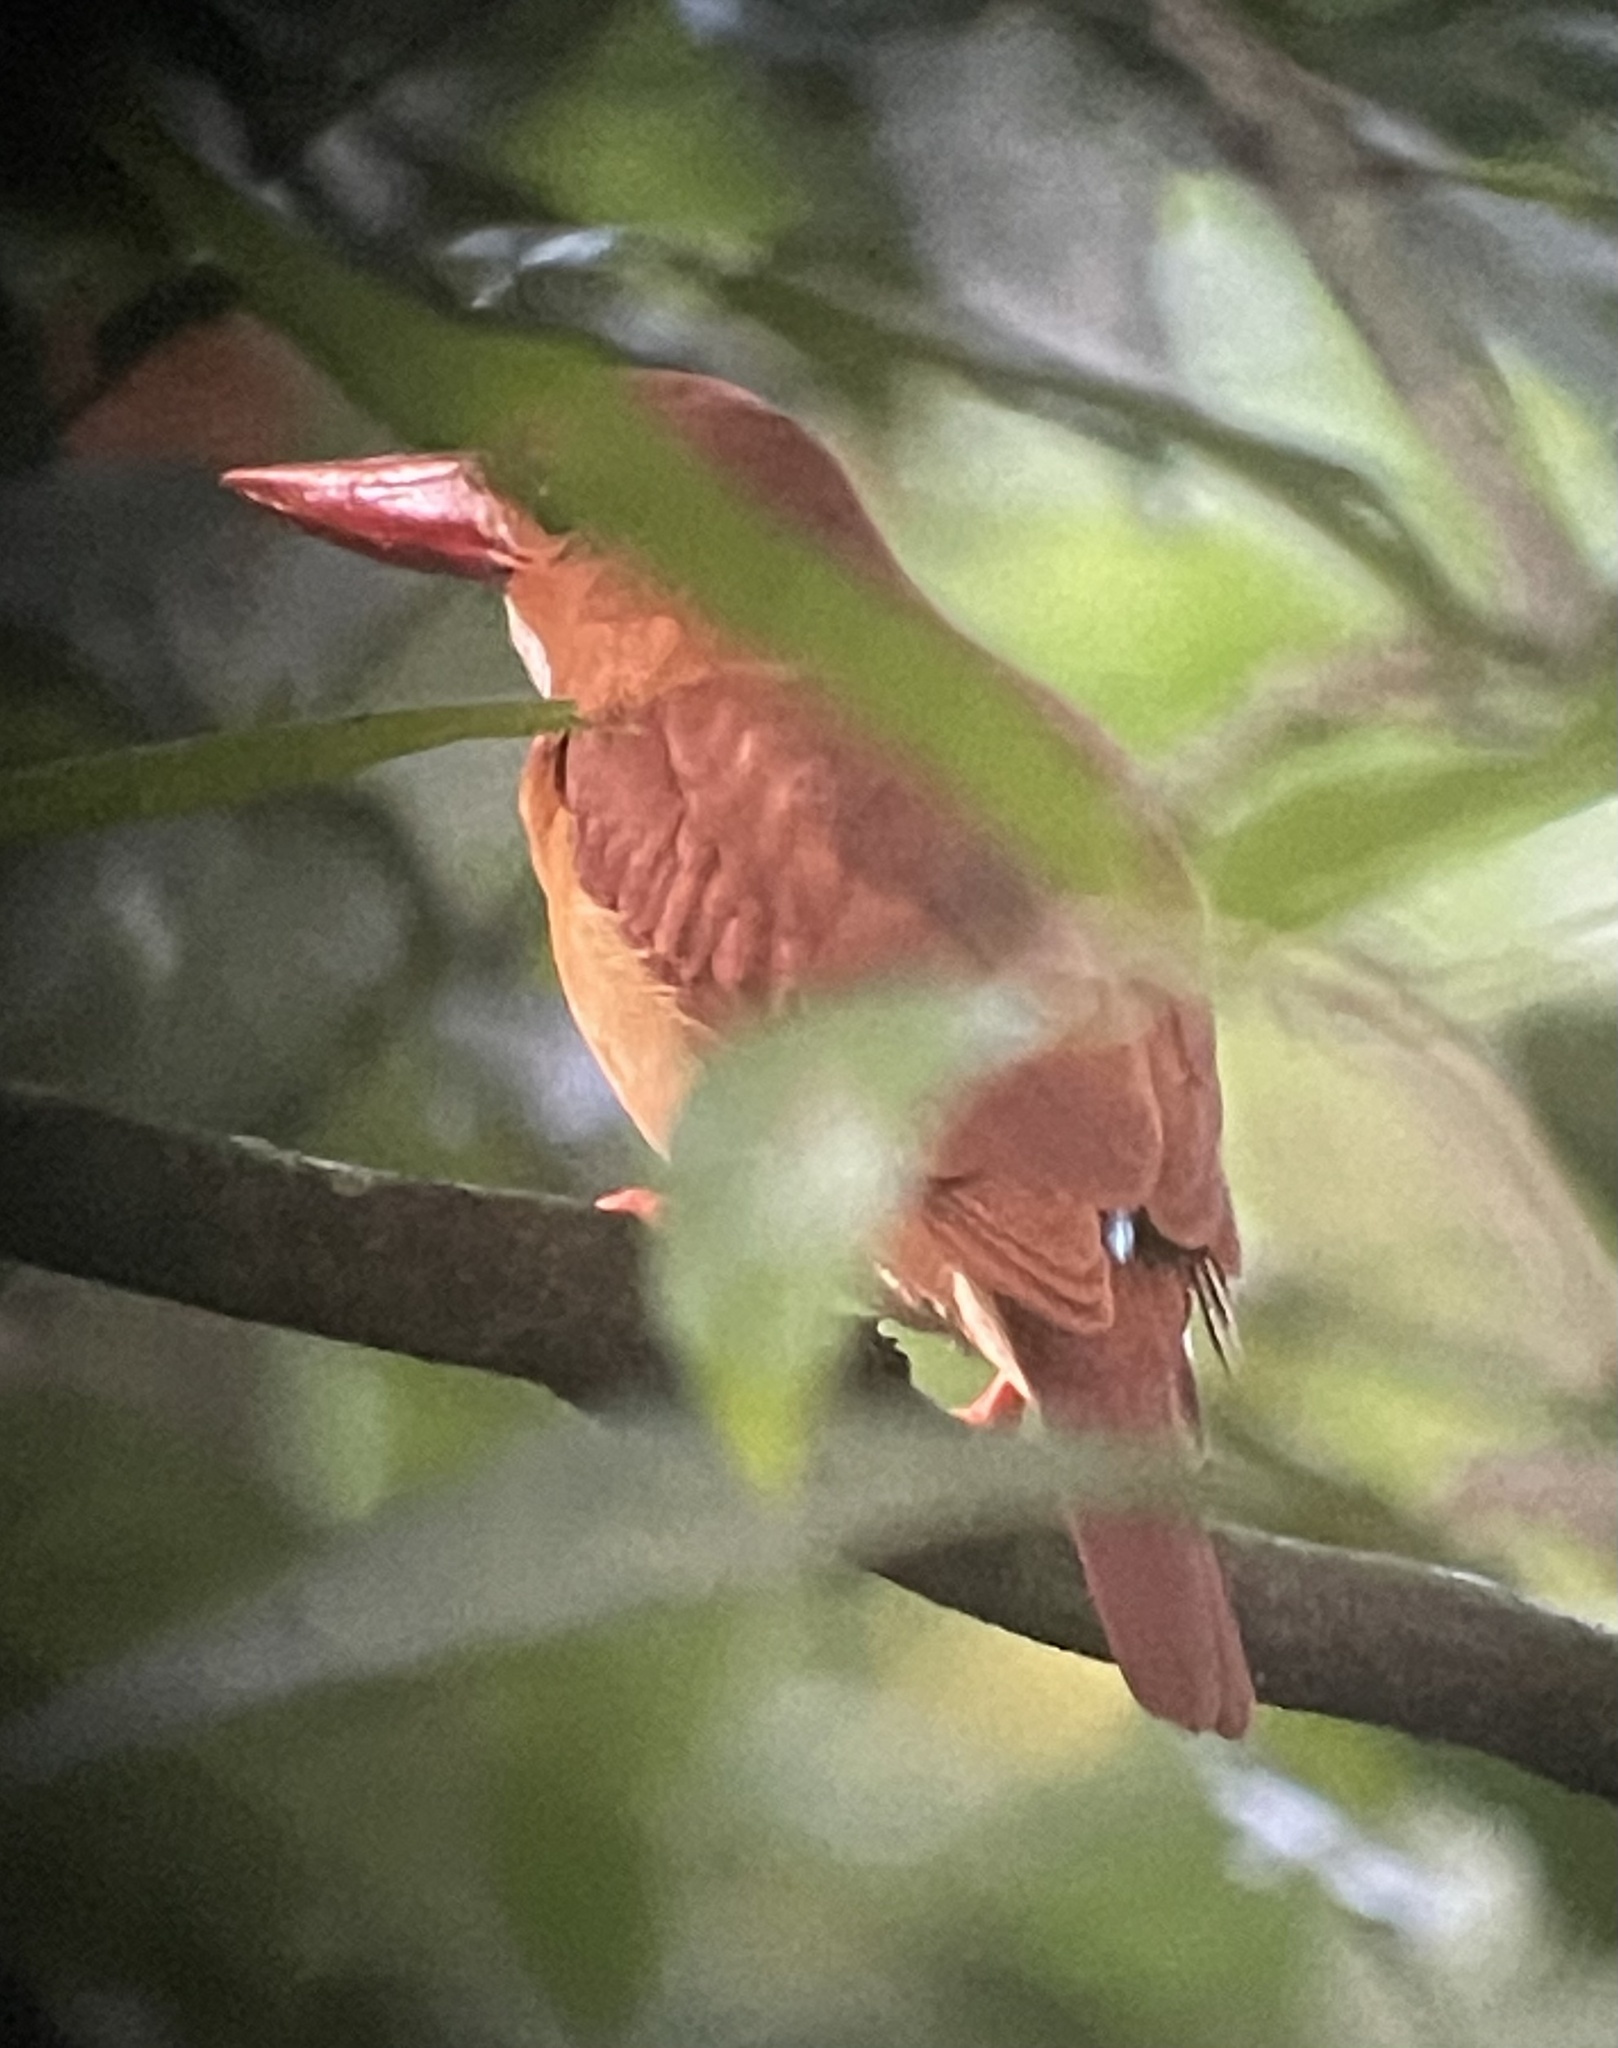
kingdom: Animalia
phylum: Chordata
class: Aves
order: Coraciiformes
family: Alcedinidae
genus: Halcyon
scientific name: Halcyon coromanda
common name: Ruddy kingfisher
